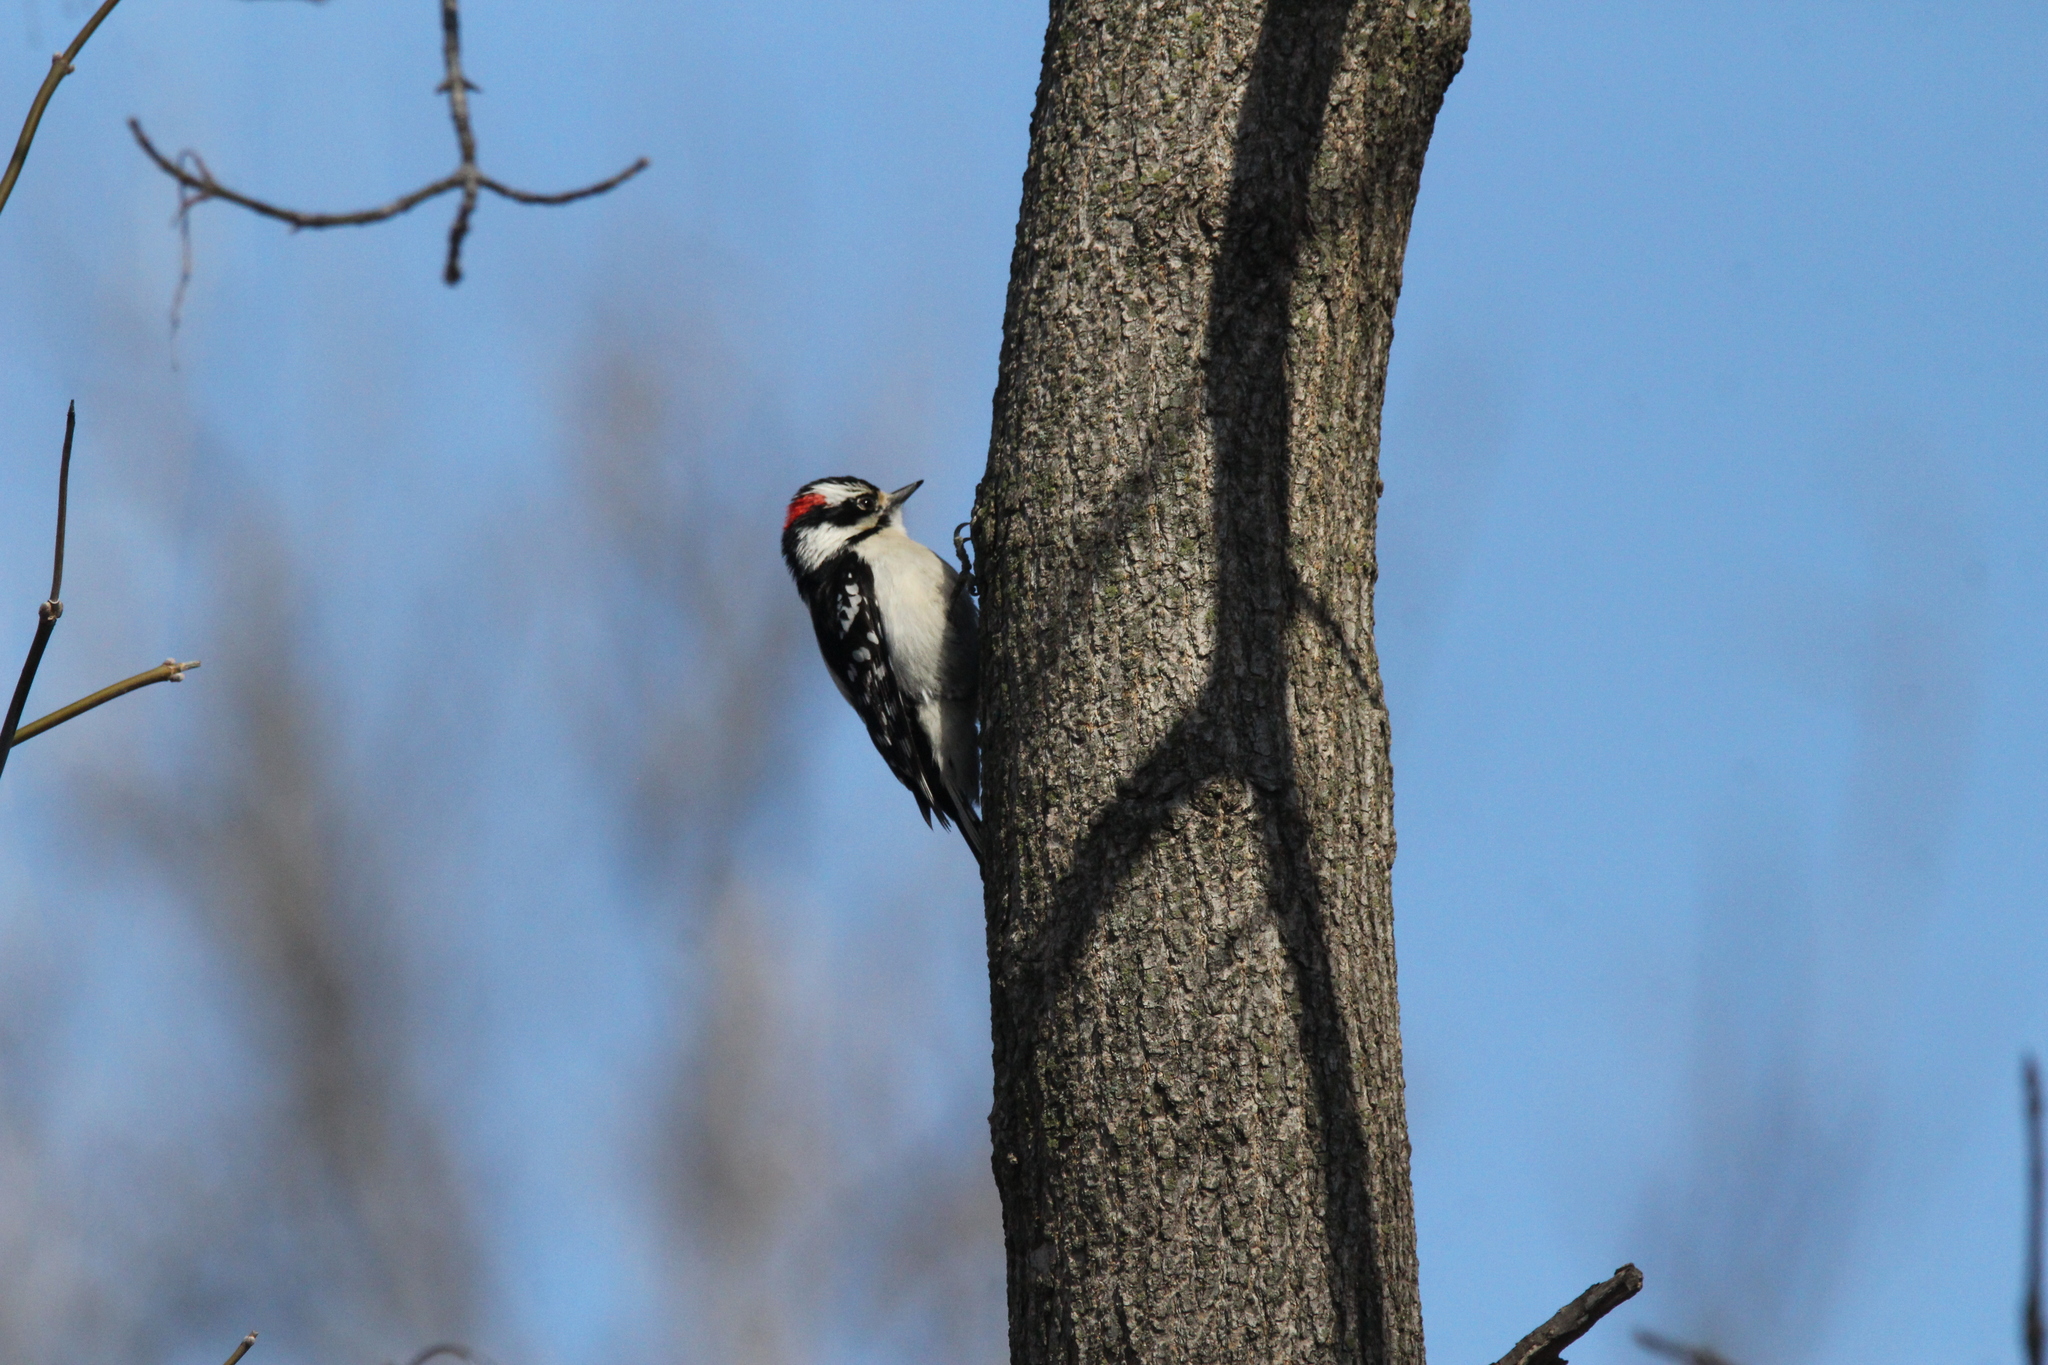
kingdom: Animalia
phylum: Chordata
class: Aves
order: Piciformes
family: Picidae
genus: Dryobates
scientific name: Dryobates pubescens
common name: Downy woodpecker
